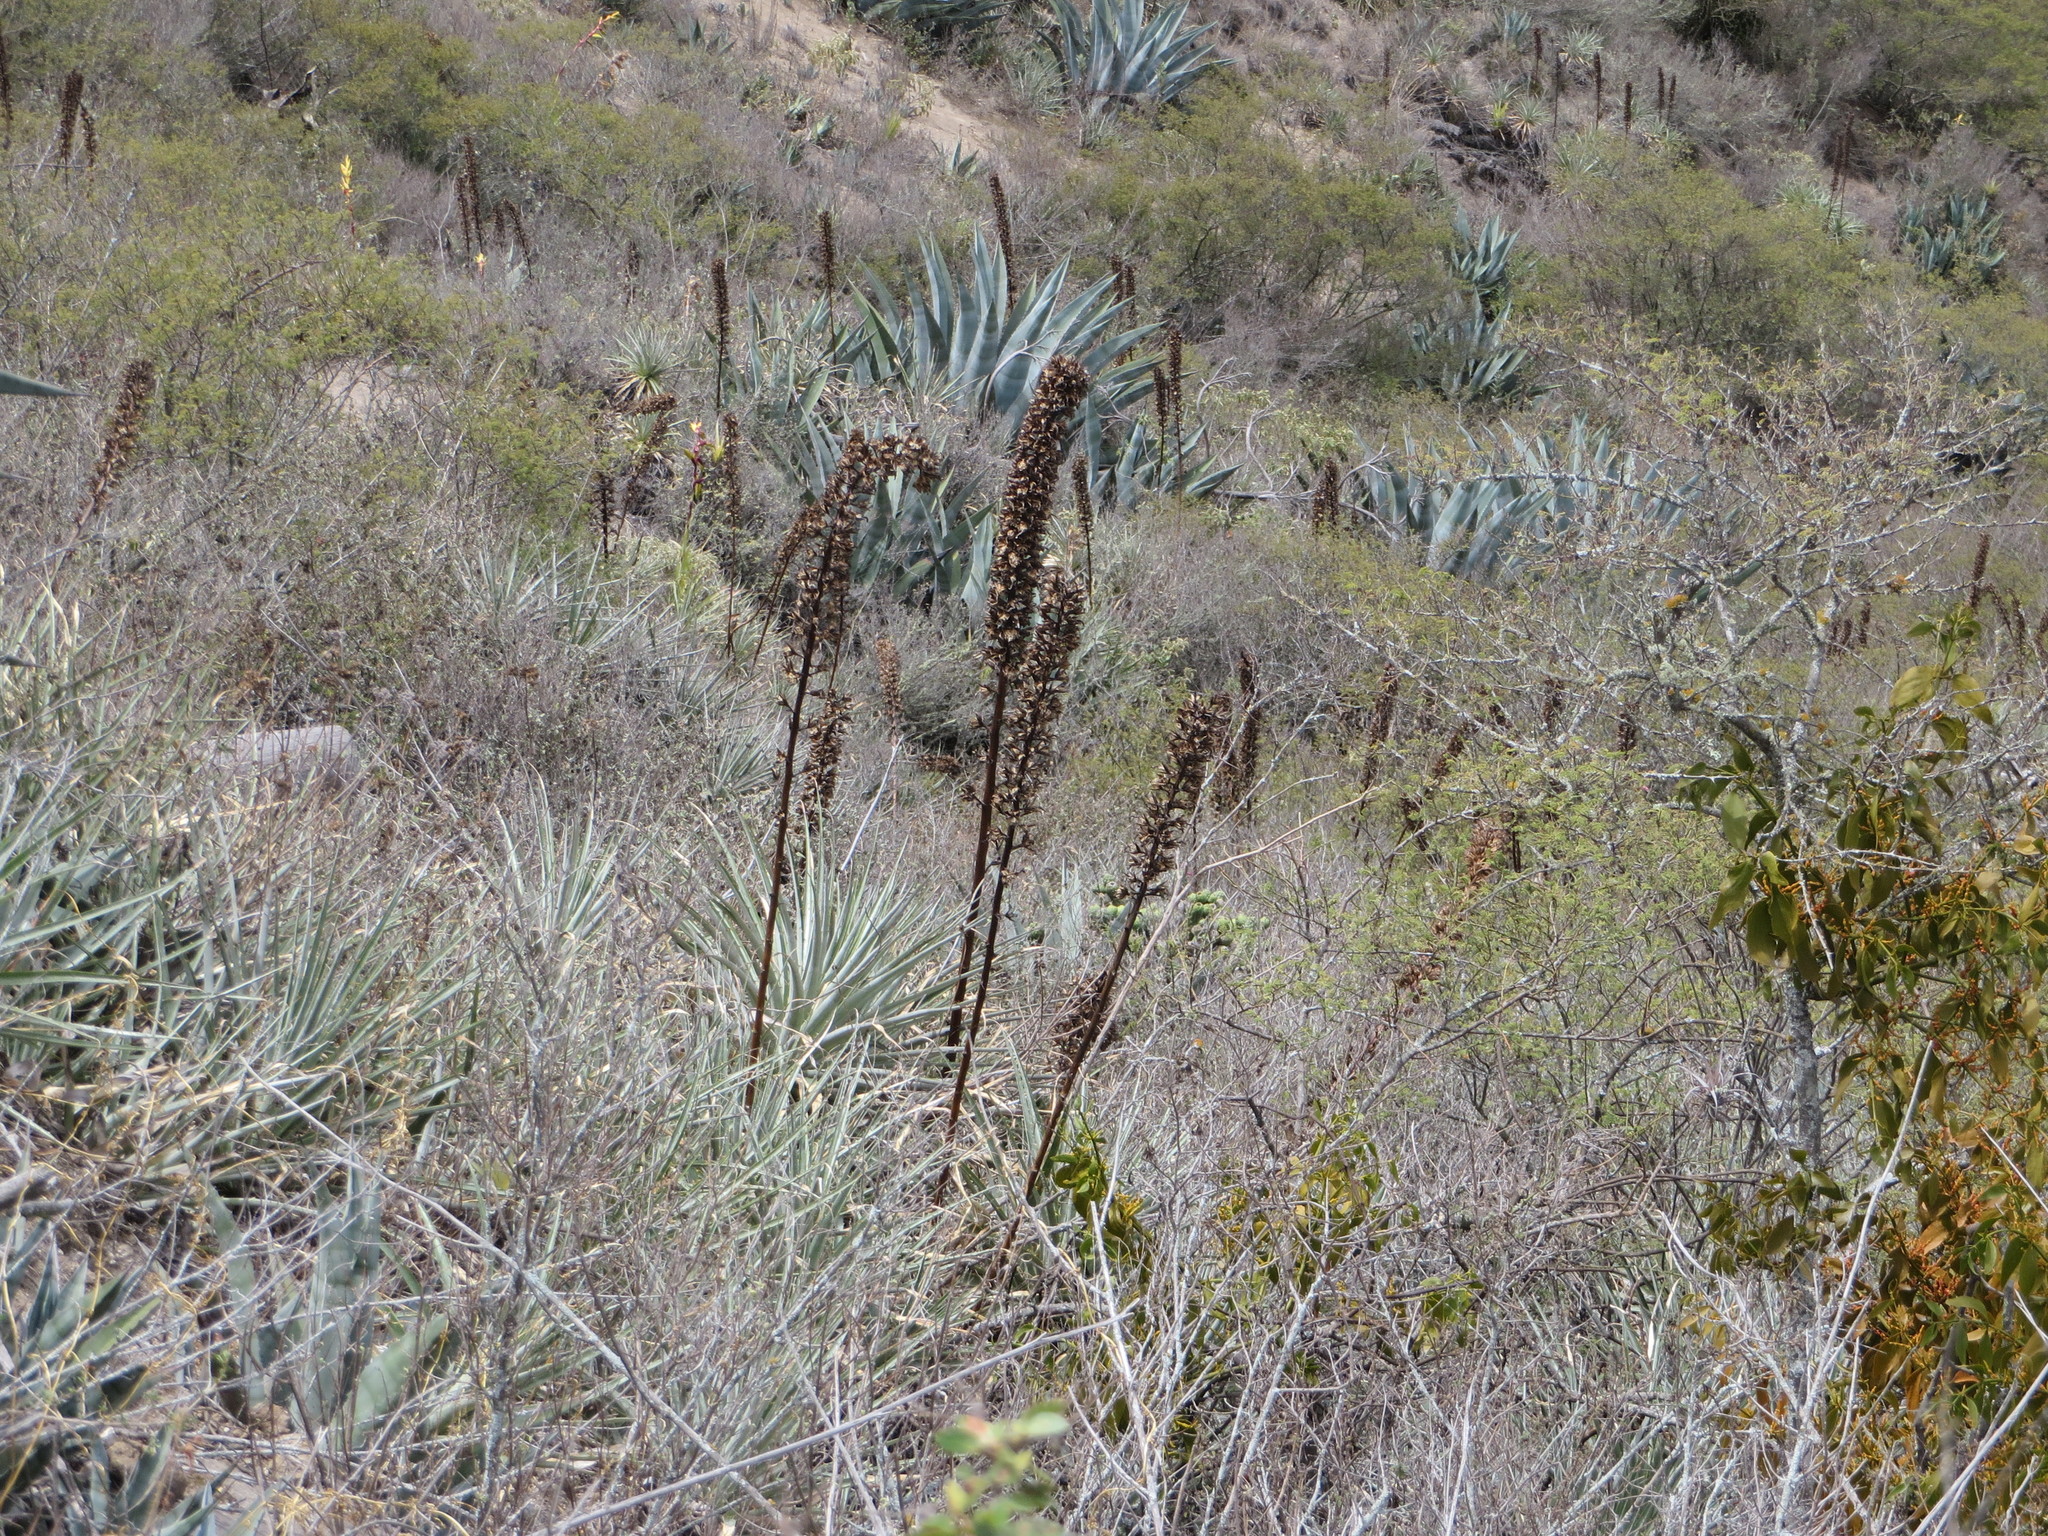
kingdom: Plantae
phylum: Tracheophyta
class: Liliopsida
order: Poales
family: Bromeliaceae
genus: Puya
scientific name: Puya aequatorialis
